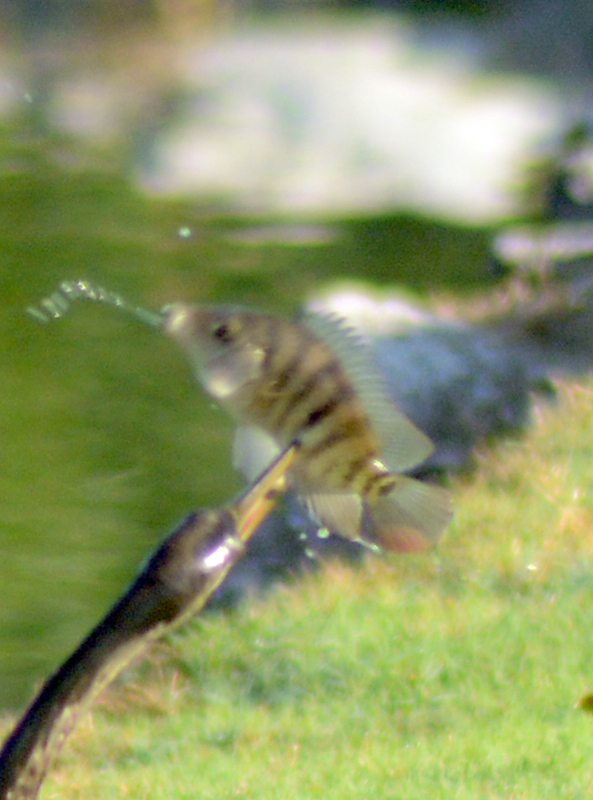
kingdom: Animalia
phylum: Chordata
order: Perciformes
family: Cichlidae
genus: Mayaheros
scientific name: Mayaheros urophthalmus
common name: Mayan cichlid
